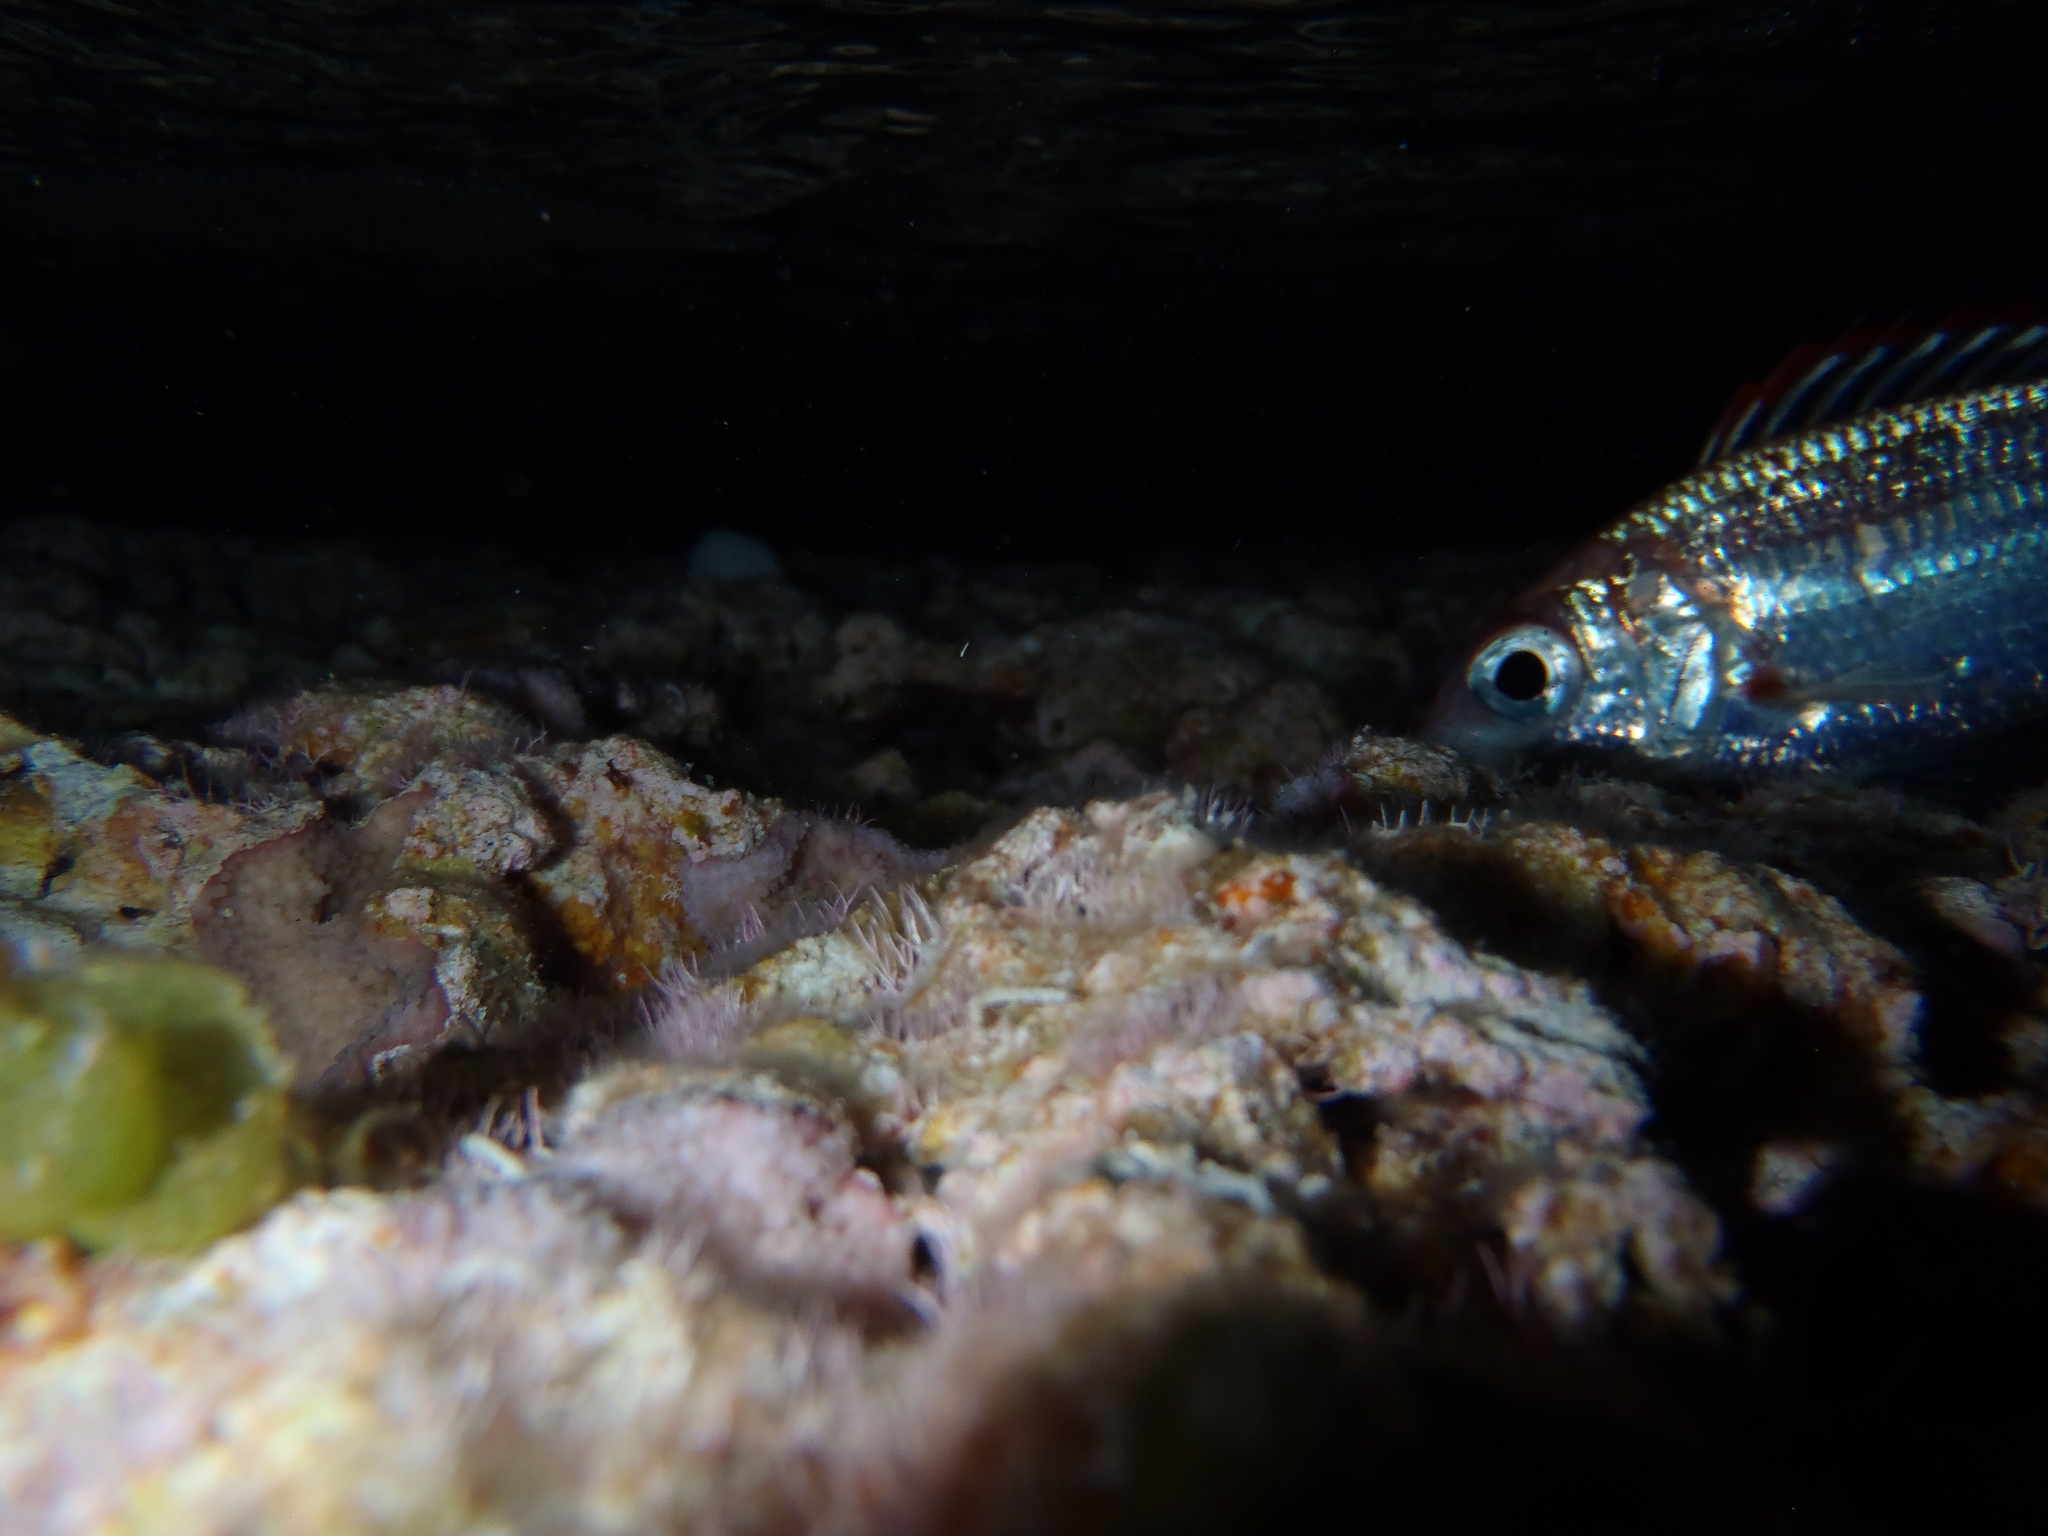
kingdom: Animalia
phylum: Chordata
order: Beryciformes
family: Holocentridae
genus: Sargocentron
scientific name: Sargocentron punctatissimum
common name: Peppered squirrelfish
